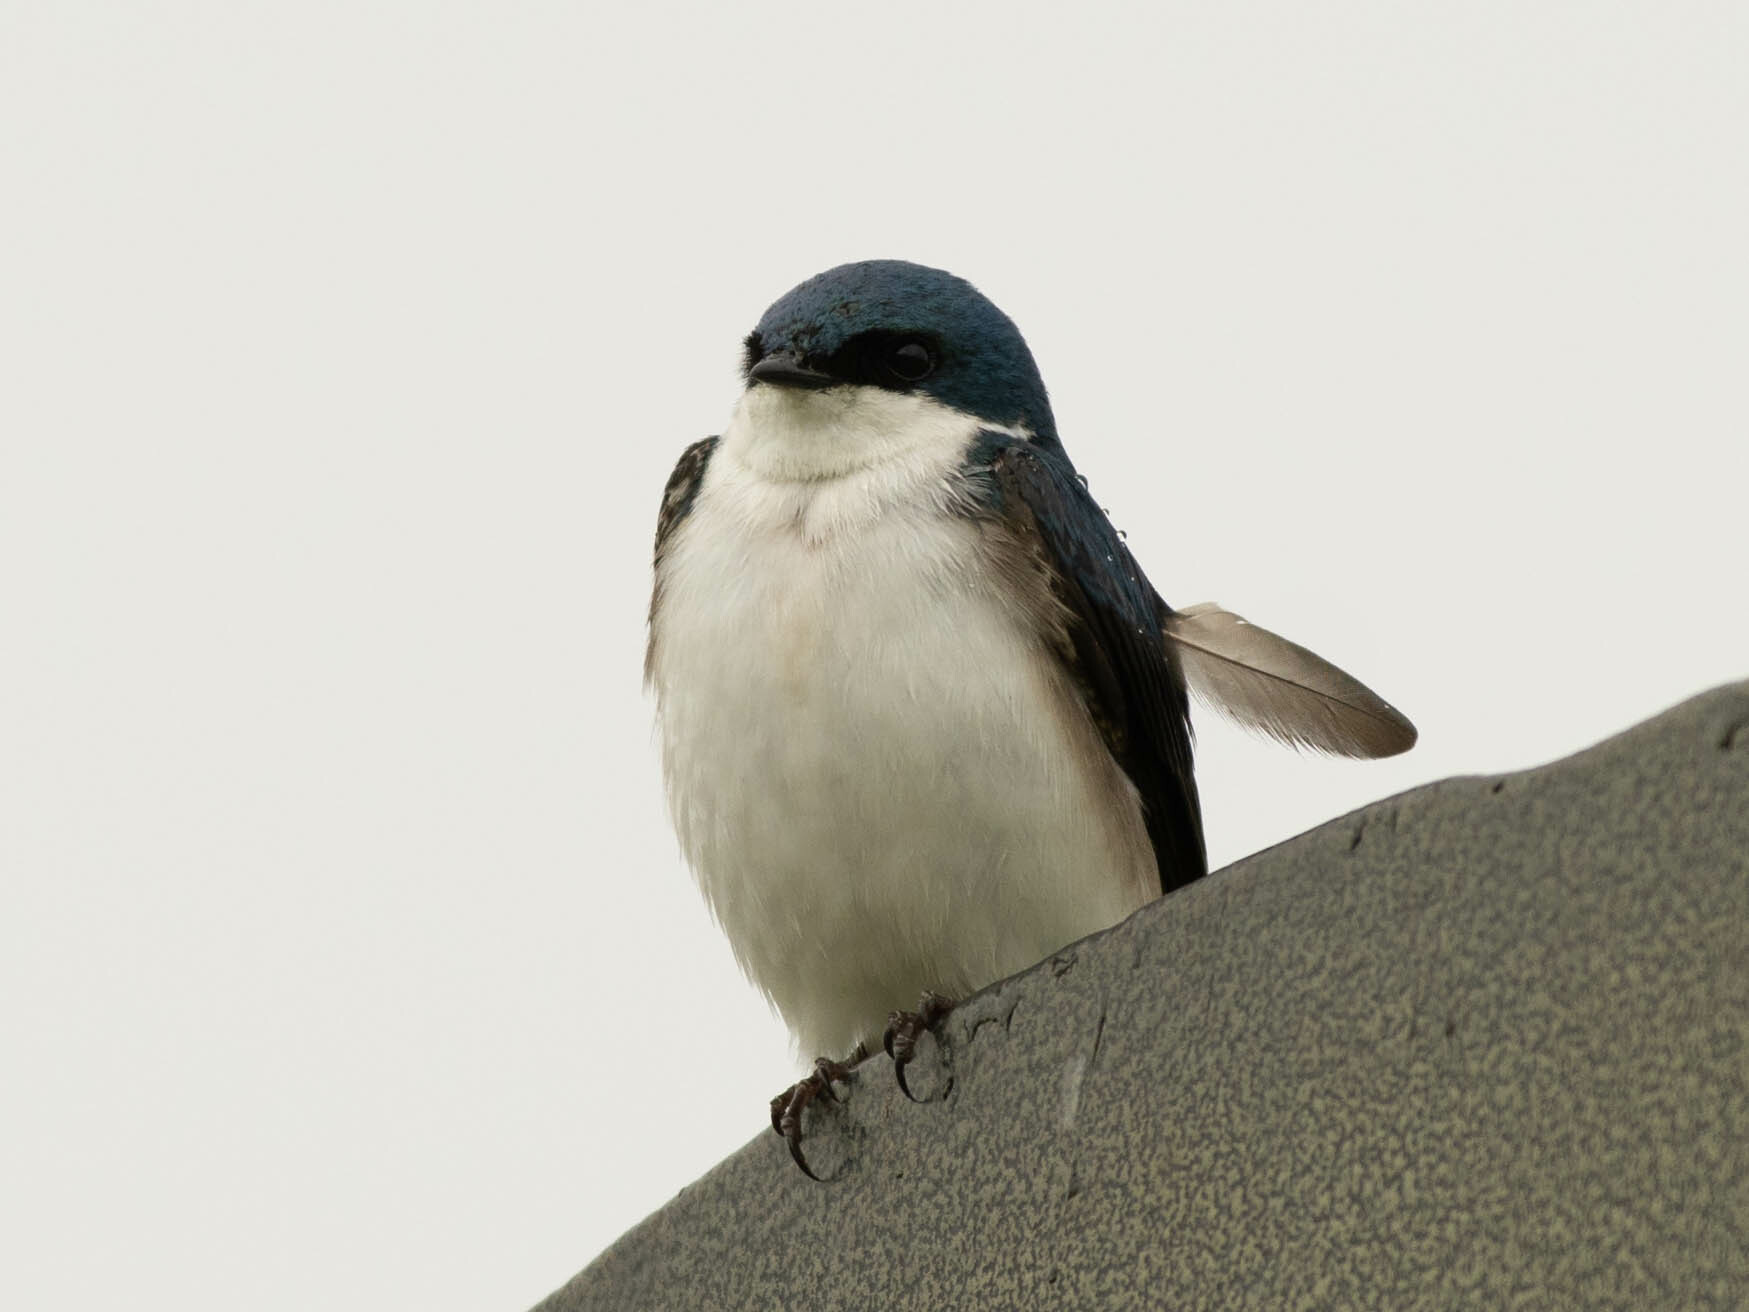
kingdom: Animalia
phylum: Chordata
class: Aves
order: Passeriformes
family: Hirundinidae
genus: Tachycineta
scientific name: Tachycineta bicolor
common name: Tree swallow
